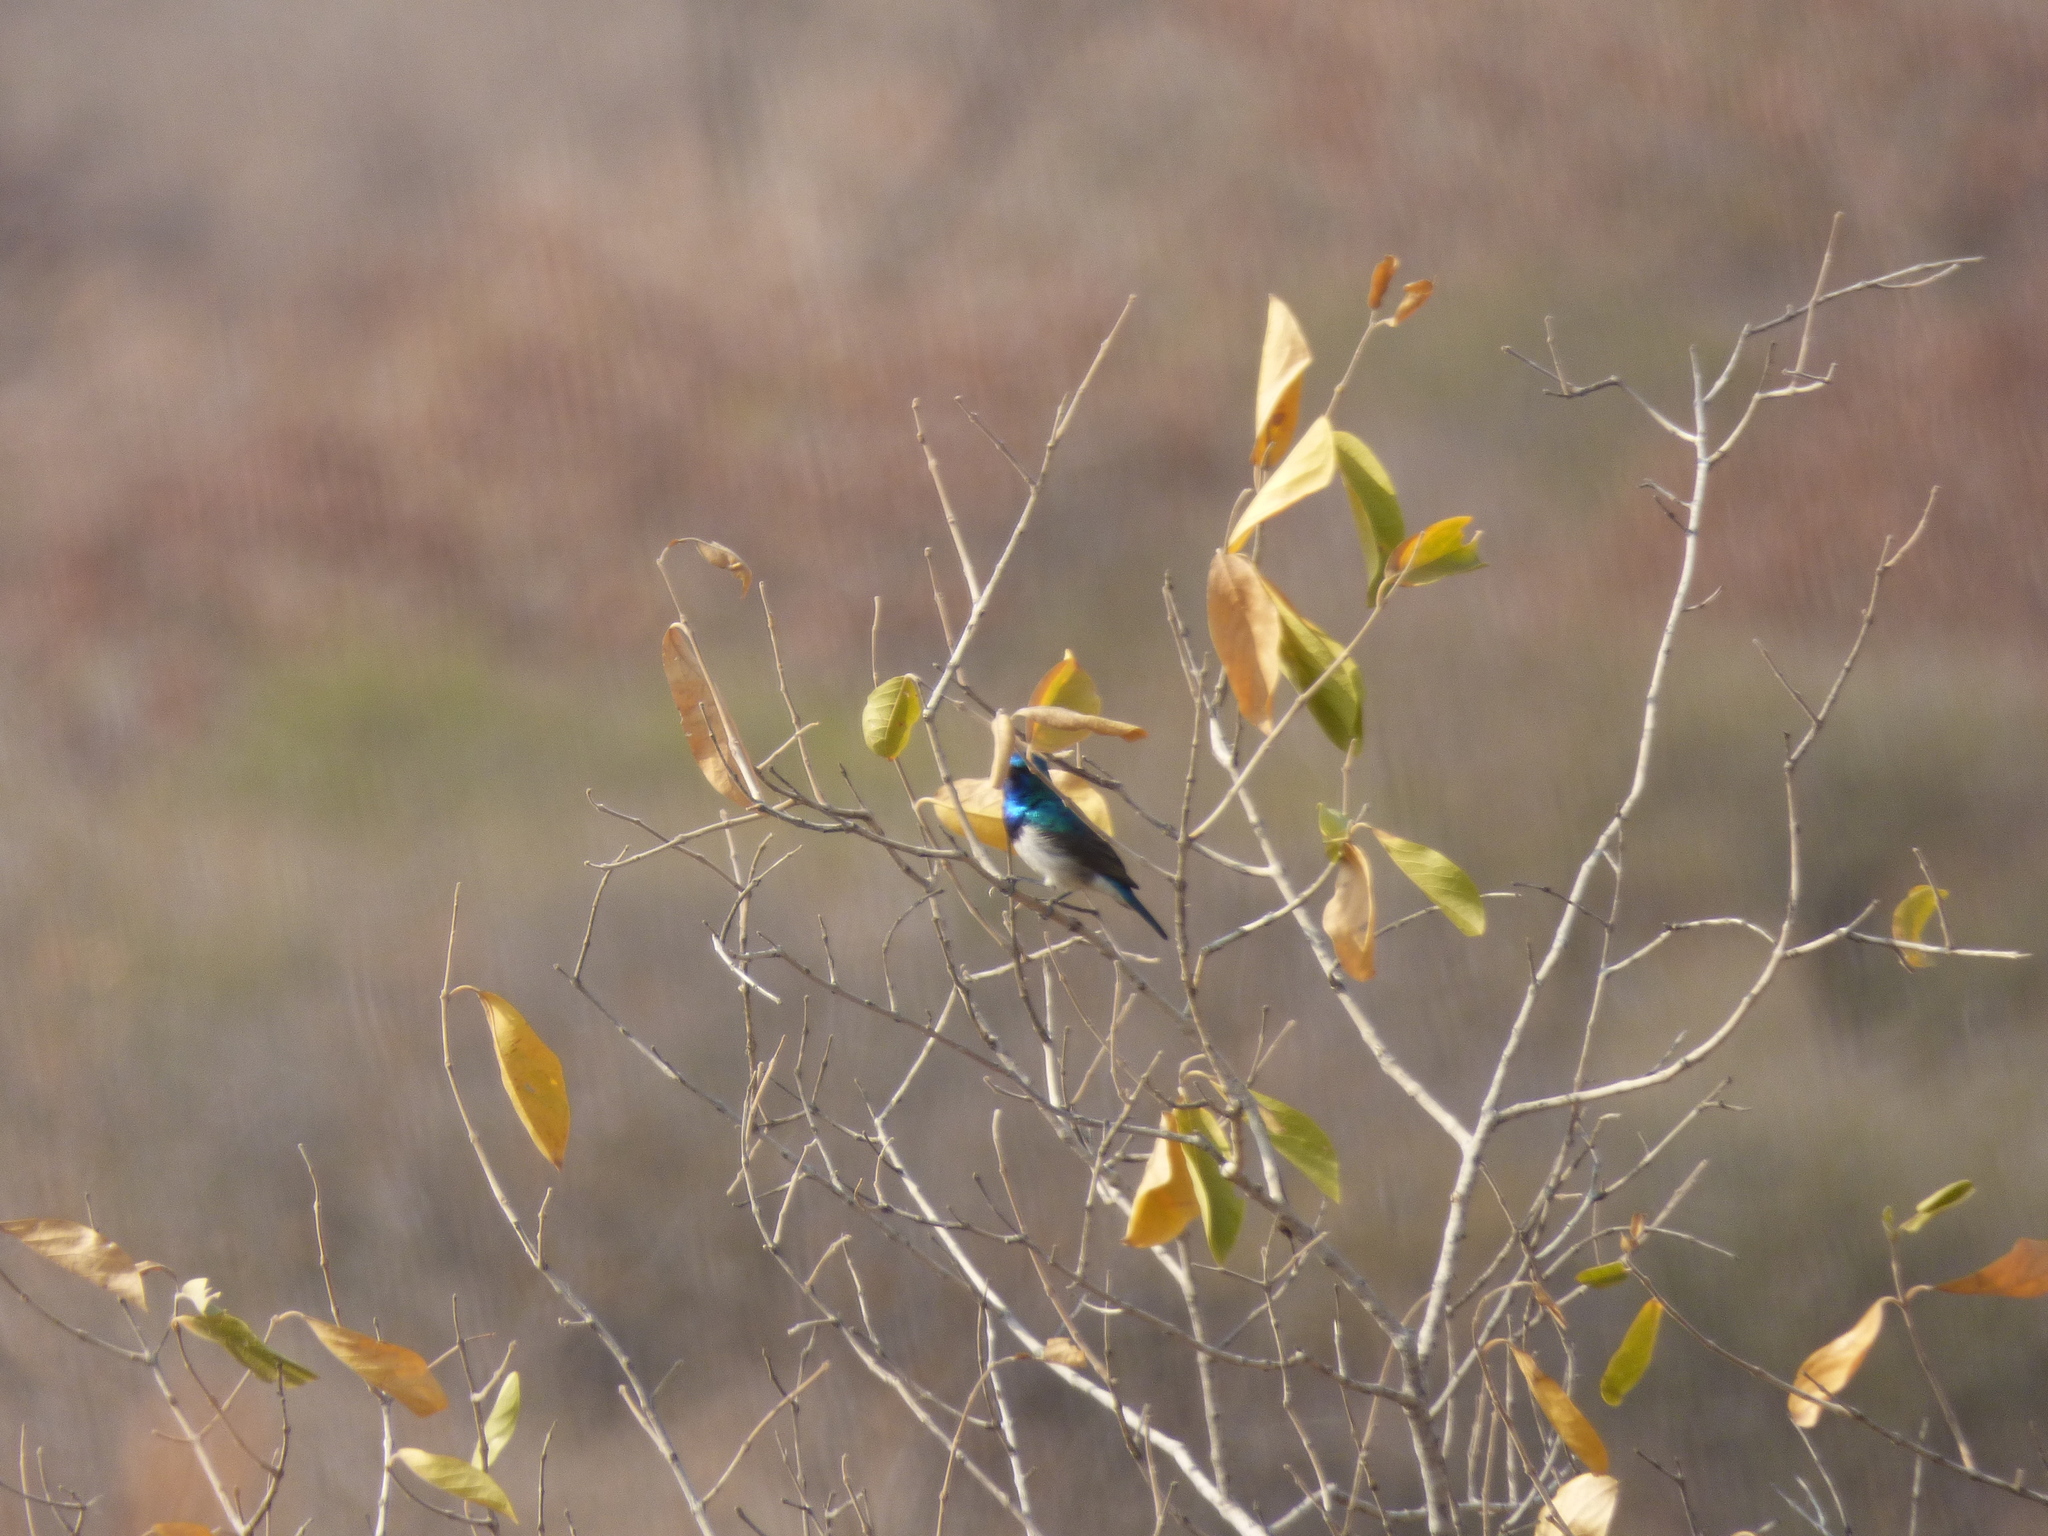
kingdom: Animalia
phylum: Chordata
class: Aves
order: Passeriformes
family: Nectariniidae
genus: Cinnyris
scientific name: Cinnyris talatala
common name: White-bellied sunbird
